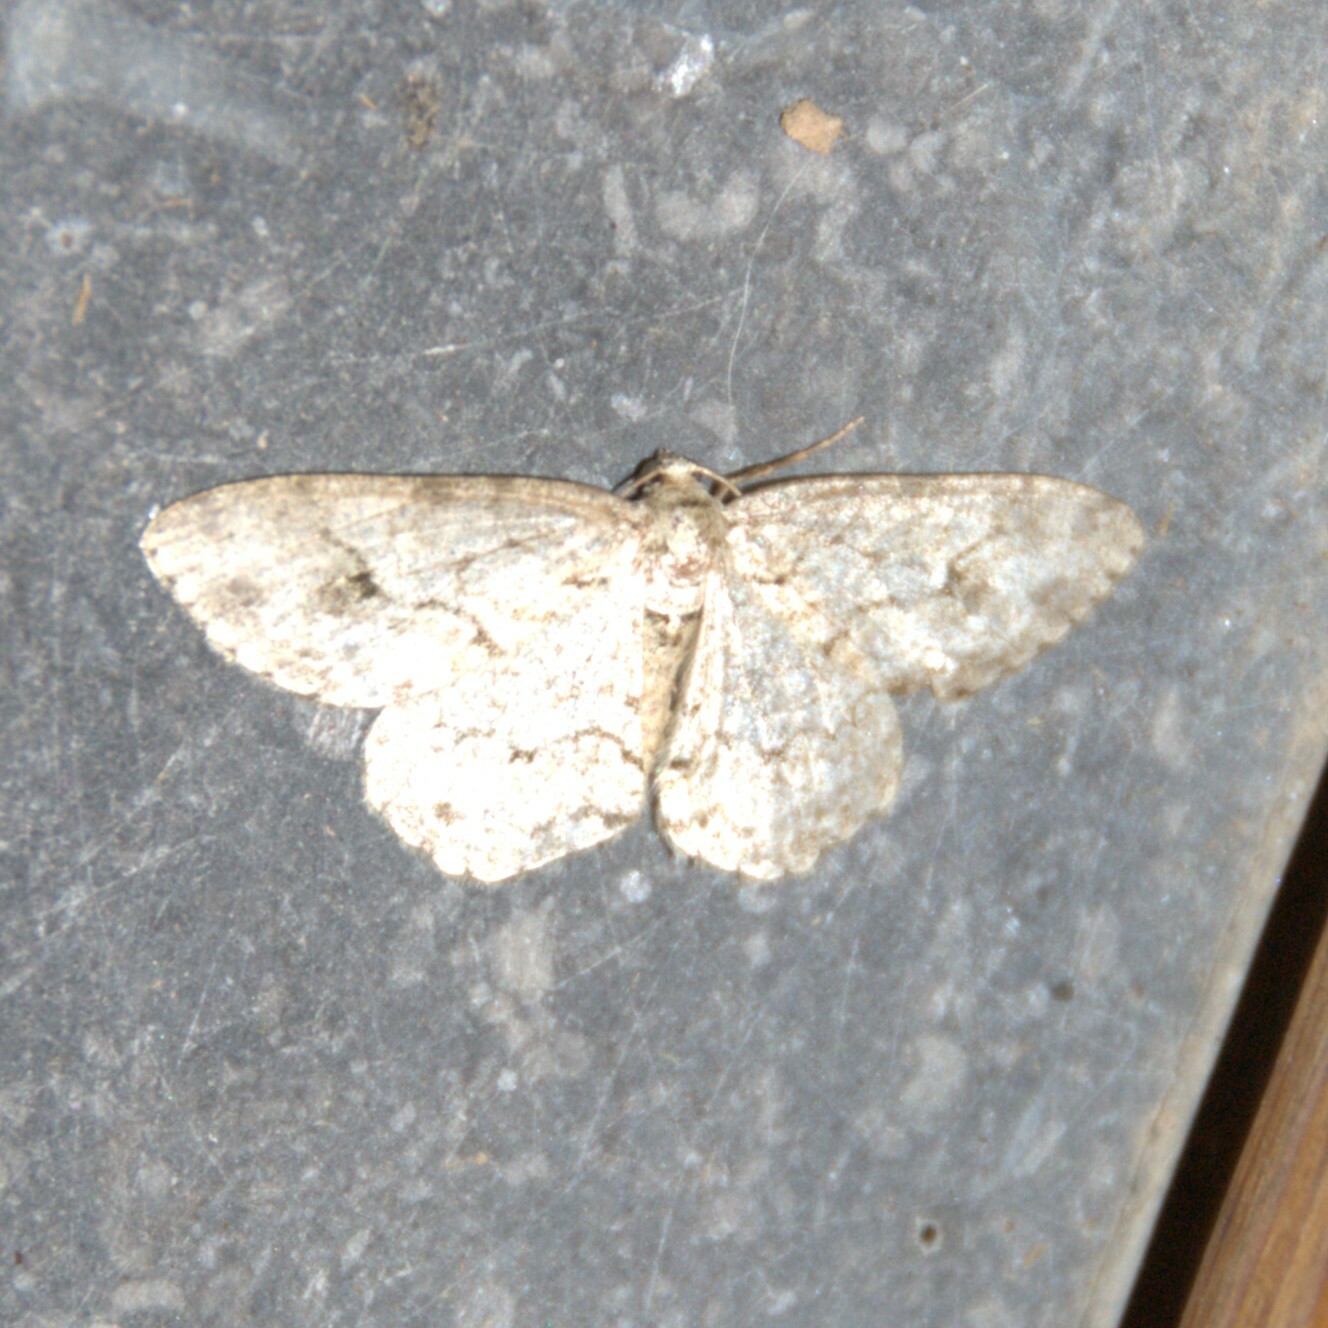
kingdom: Animalia
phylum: Arthropoda
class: Insecta
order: Lepidoptera
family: Geometridae
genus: Ectropis
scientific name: Ectropis crepuscularia
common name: Engrailed
